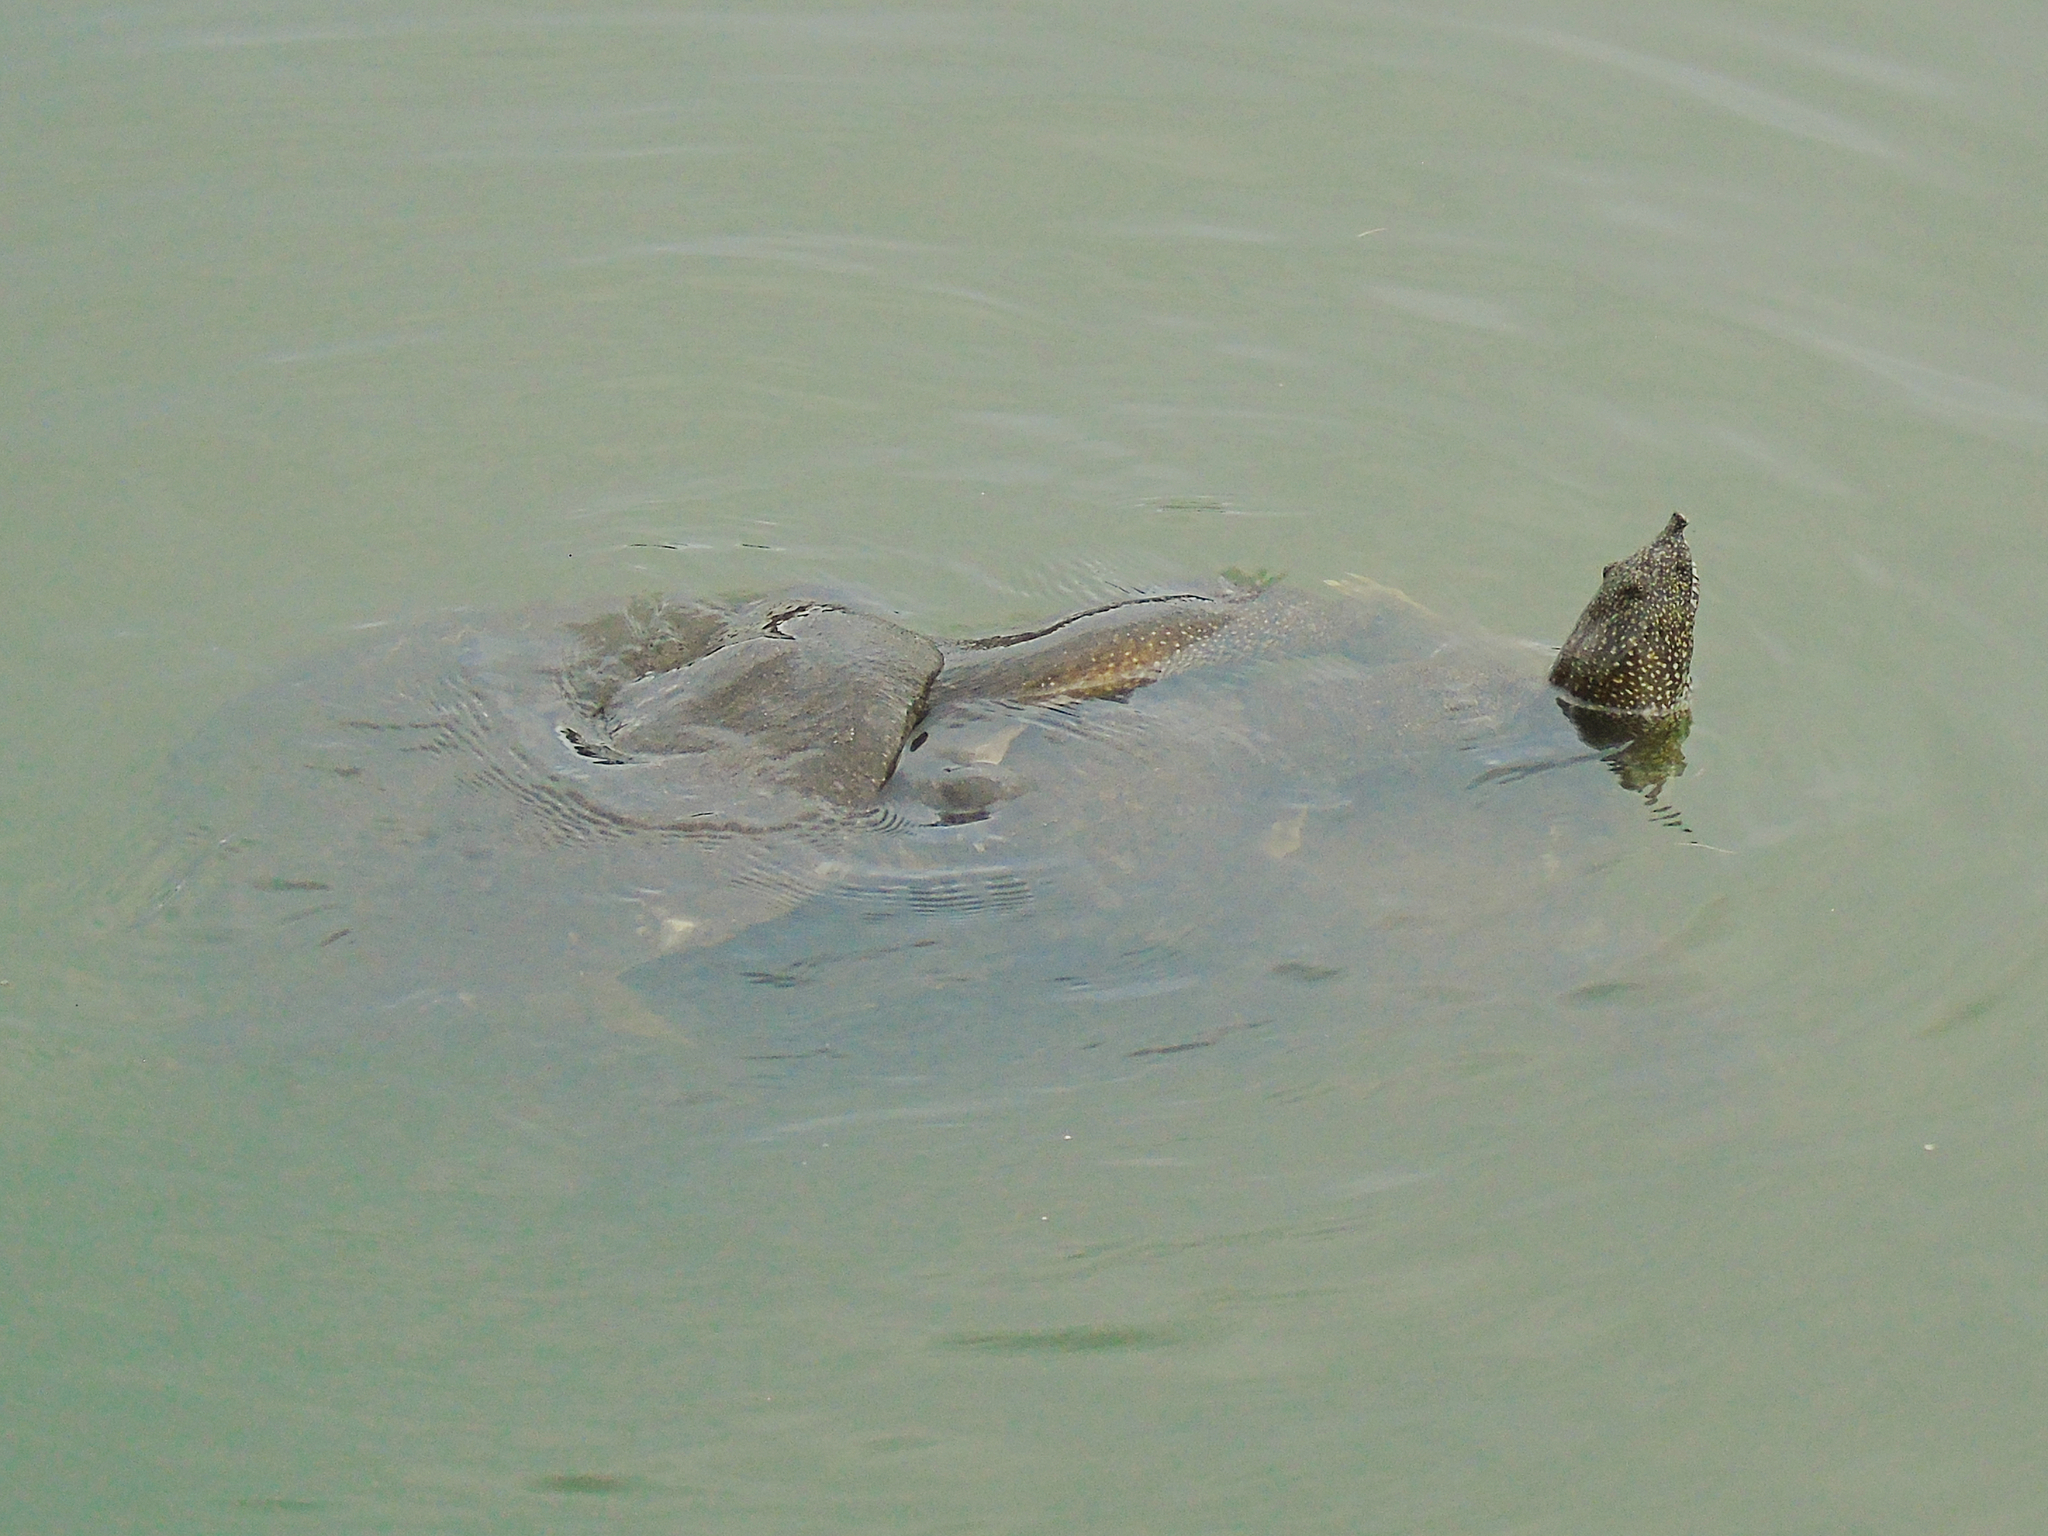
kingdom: Animalia
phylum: Chordata
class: Testudines
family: Trionychidae
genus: Trionyx
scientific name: Trionyx triunguis
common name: African softshell turtle
